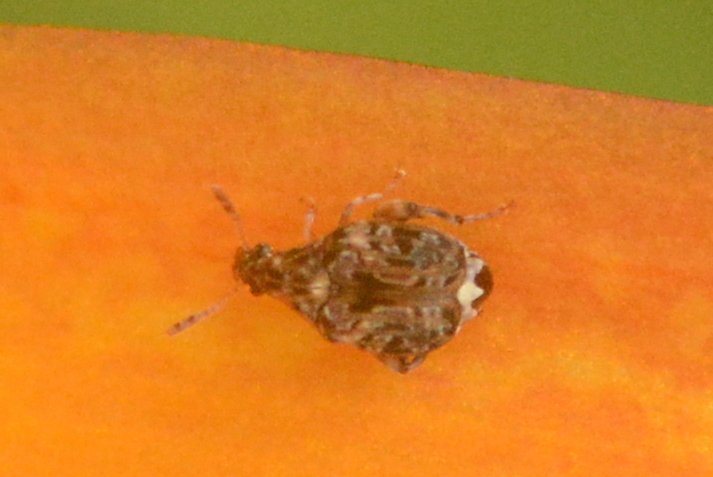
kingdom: Animalia
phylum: Arthropoda
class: Insecta
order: Coleoptera
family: Chrysomelidae
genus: Gibbobruchus
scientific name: Gibbobruchus mimus
